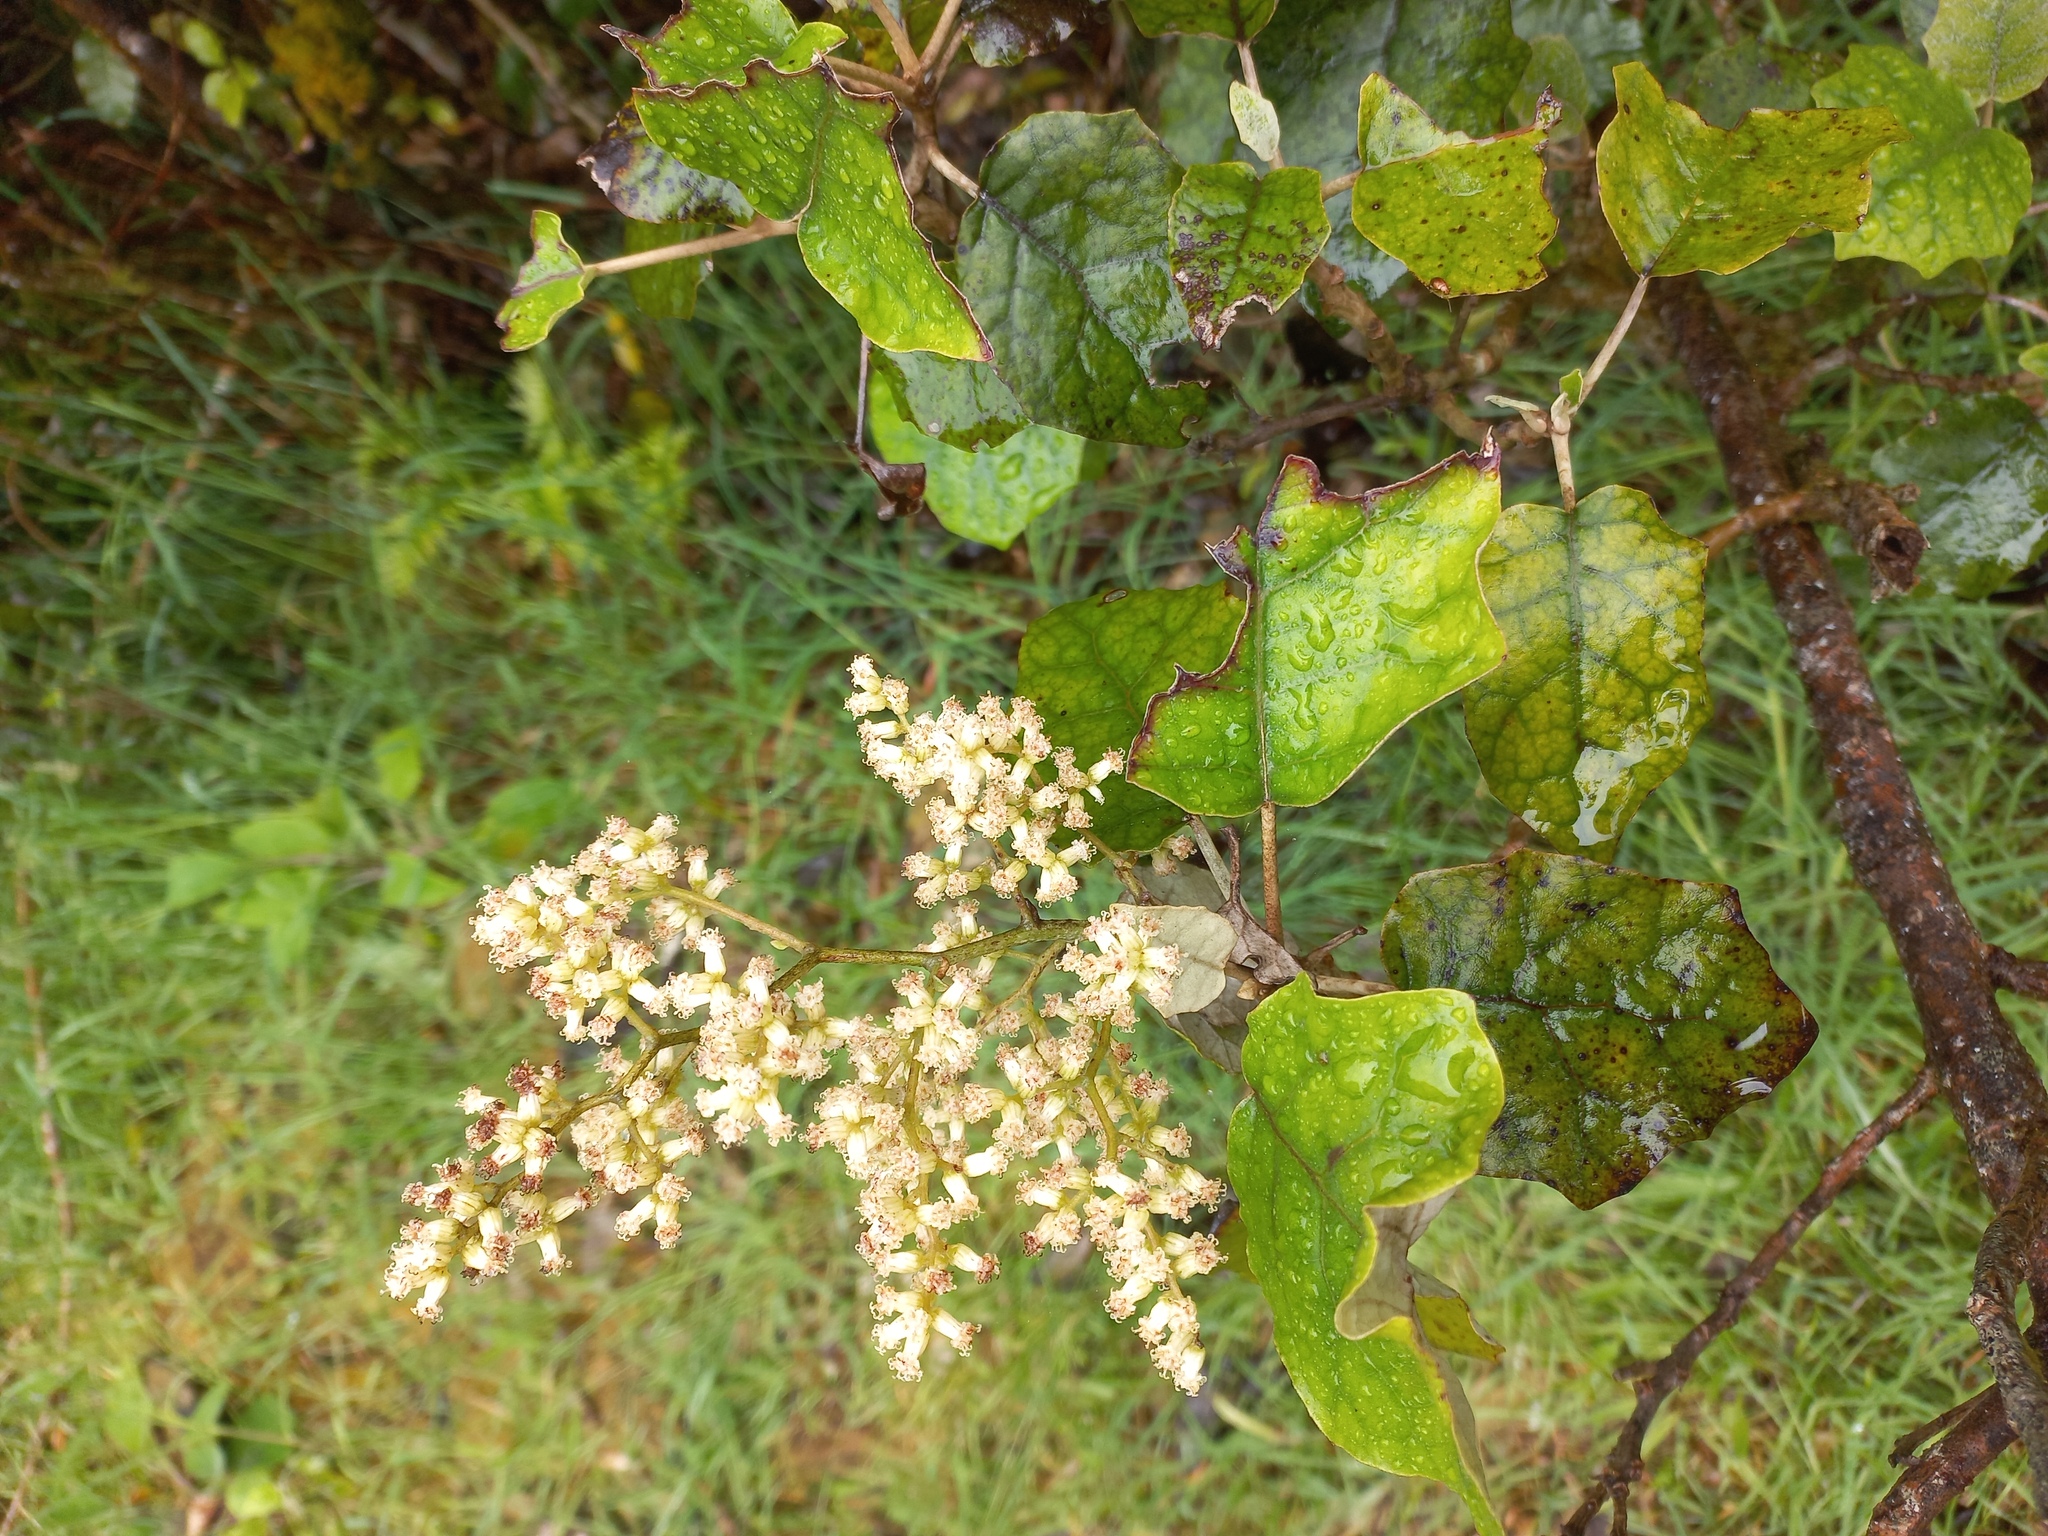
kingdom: Plantae
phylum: Tracheophyta
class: Magnoliopsida
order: Asterales
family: Asteraceae
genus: Brachyglottis
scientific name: Brachyglottis repanda
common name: Hedge ragwort
